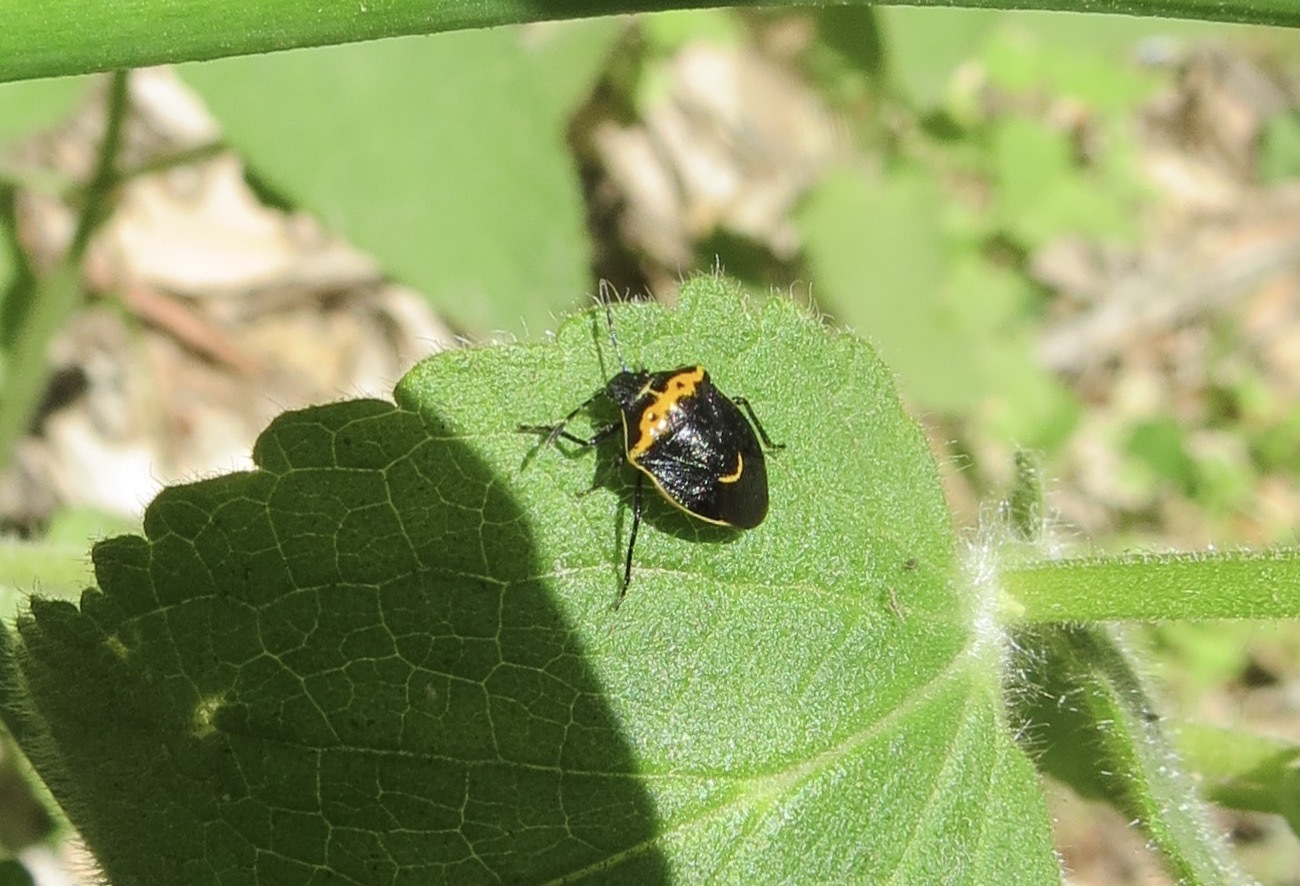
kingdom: Animalia
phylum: Arthropoda
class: Insecta
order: Hemiptera
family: Pentatomidae
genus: Cosmopepla
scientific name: Cosmopepla conspicillaris
